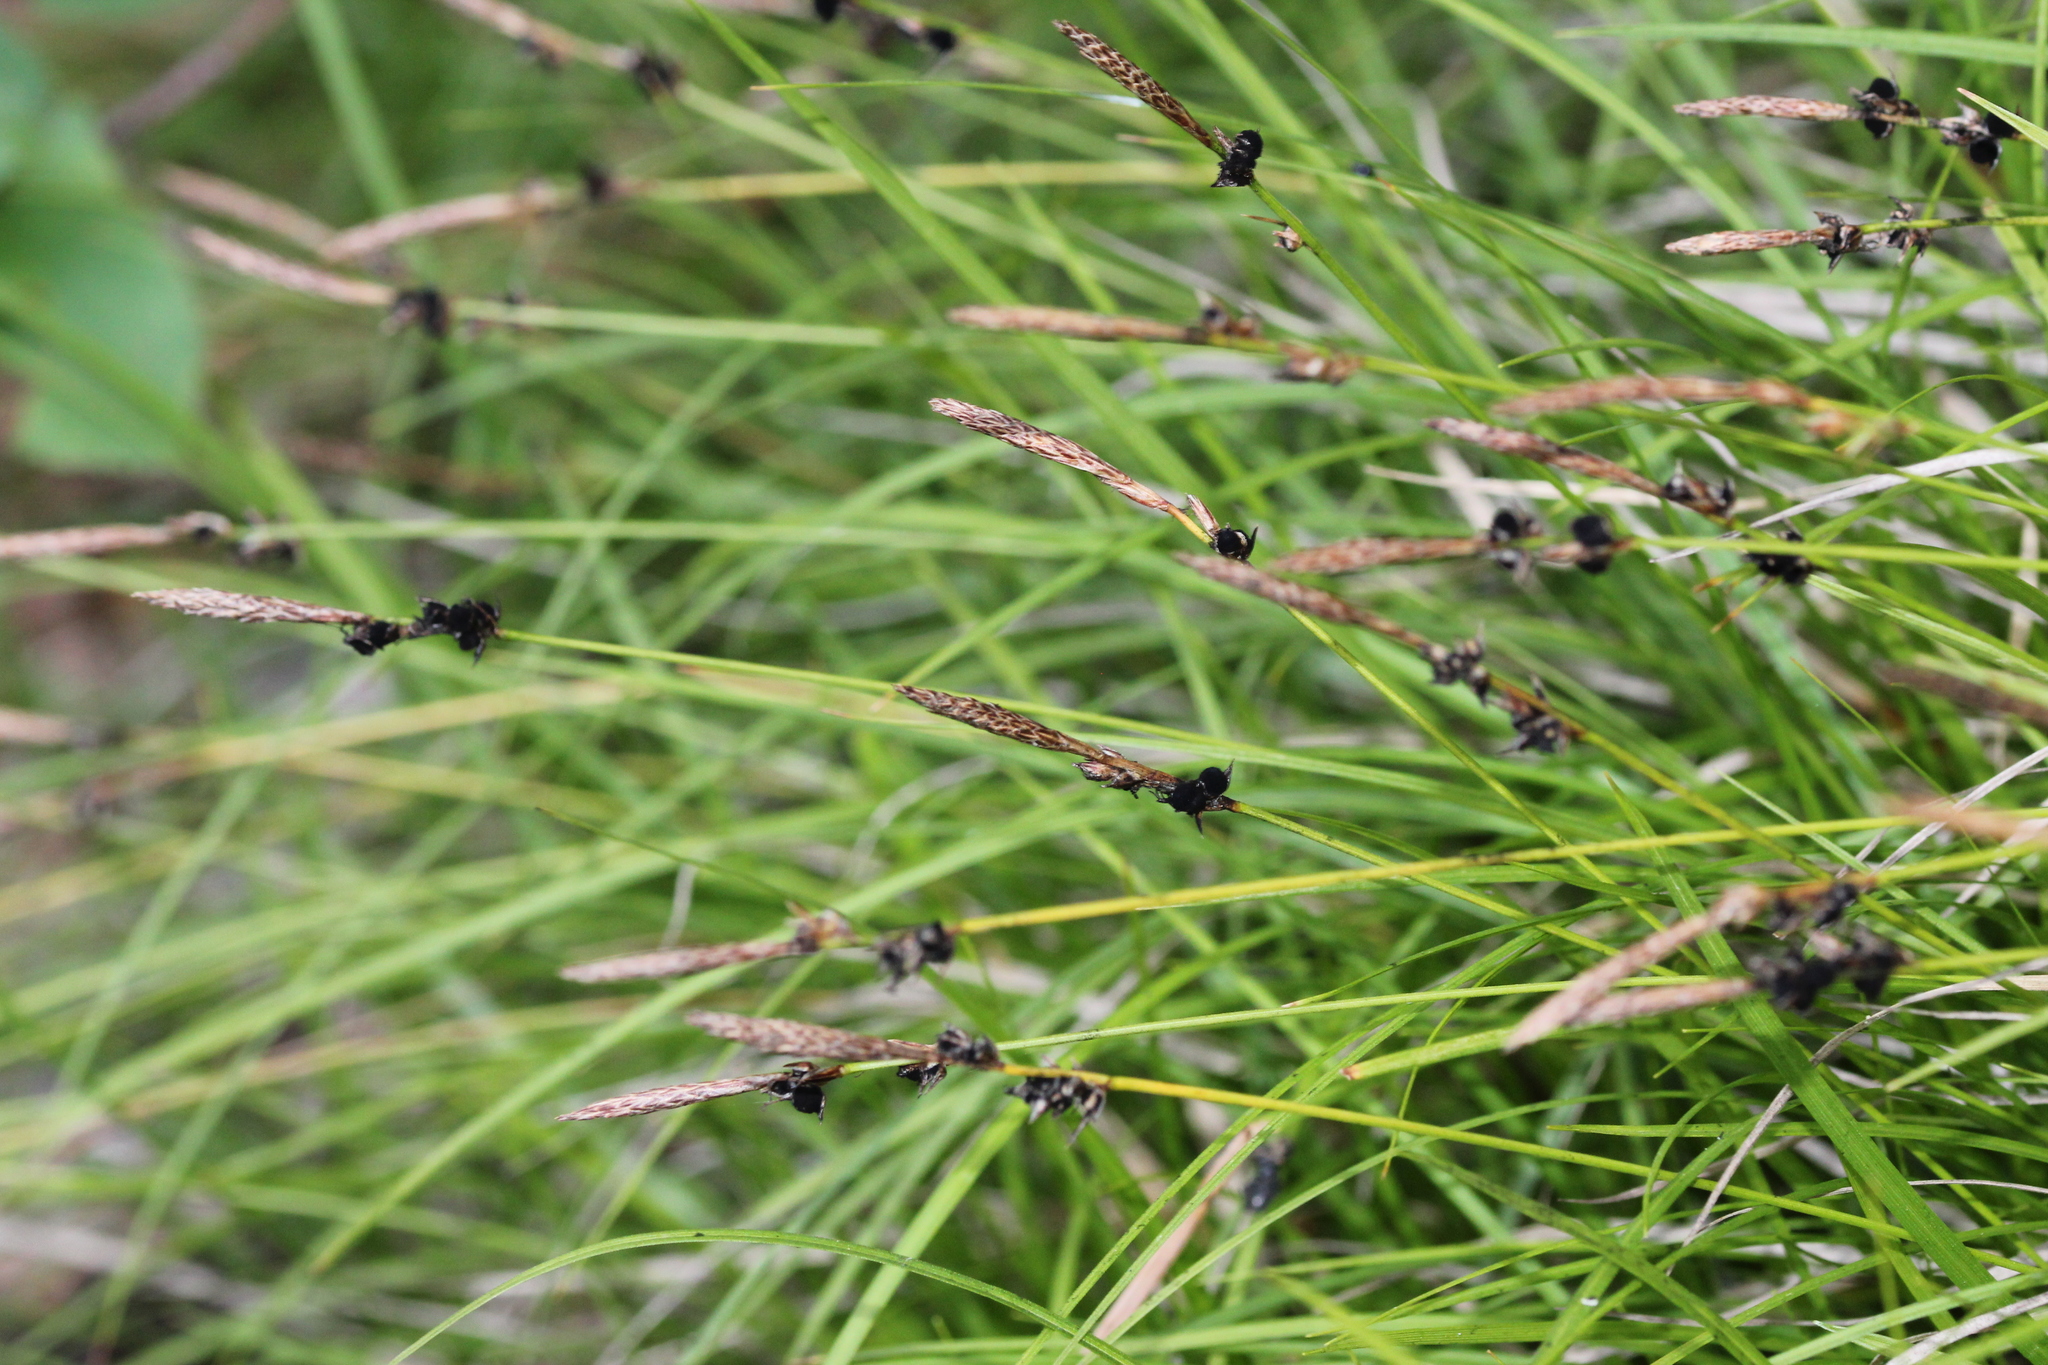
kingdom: Plantae
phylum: Tracheophyta
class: Liliopsida
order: Poales
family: Cyperaceae
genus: Carex
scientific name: Carex lucorum
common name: Blue ridge sedge
